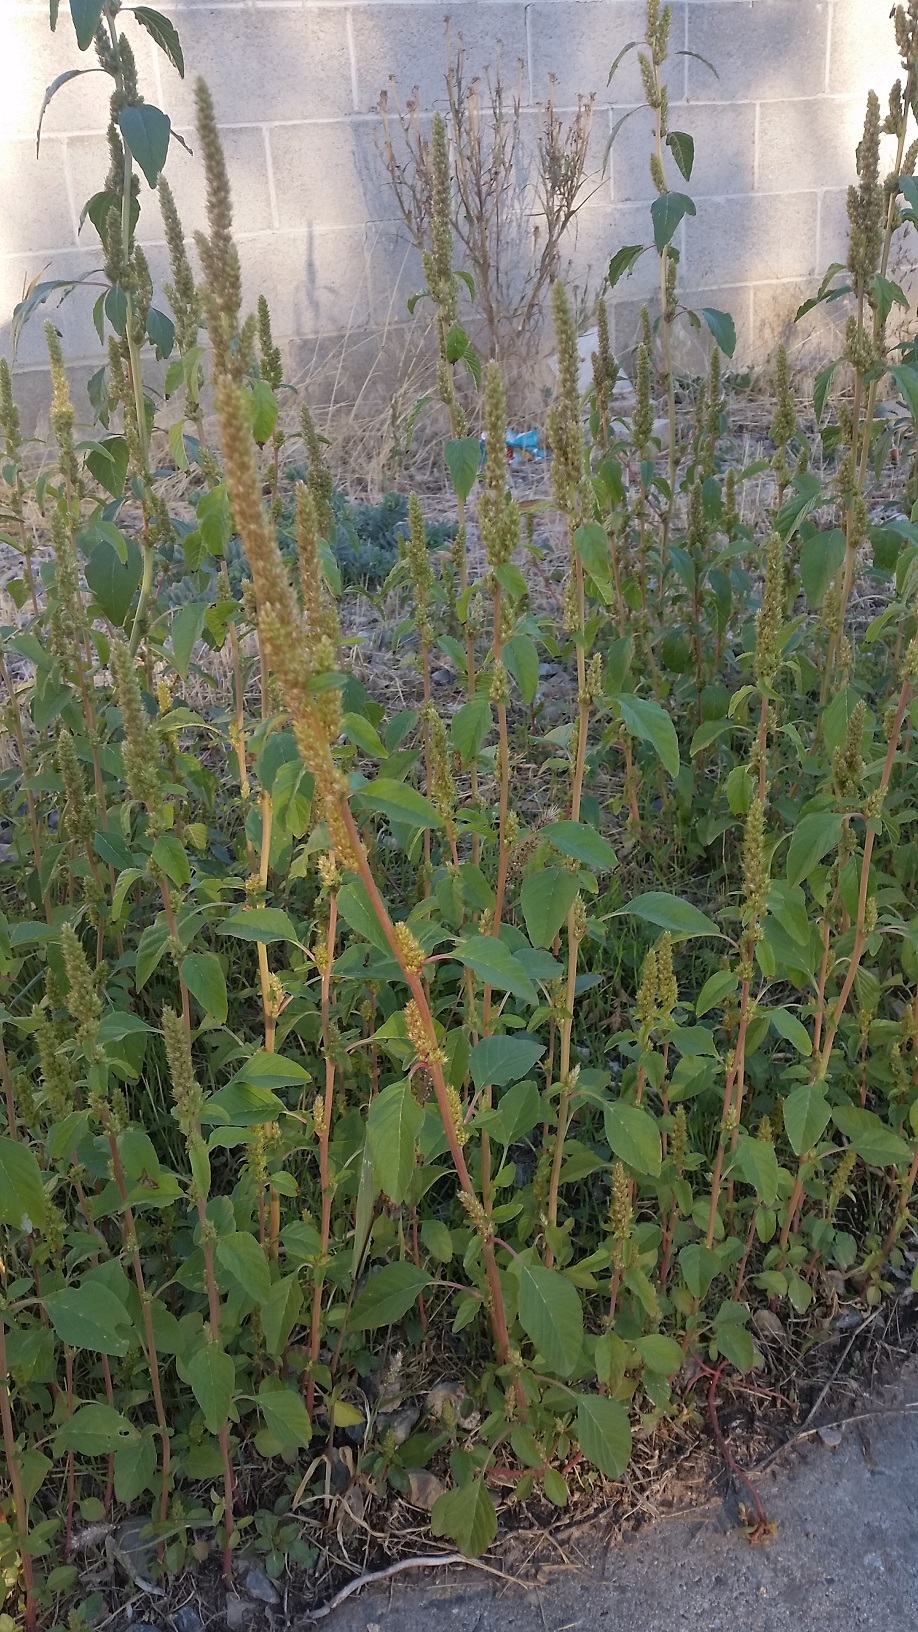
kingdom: Plantae
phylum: Tracheophyta
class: Magnoliopsida
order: Caryophyllales
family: Amaranthaceae
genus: Amaranthus
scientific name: Amaranthus retroflexus
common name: Redroot amaranth
